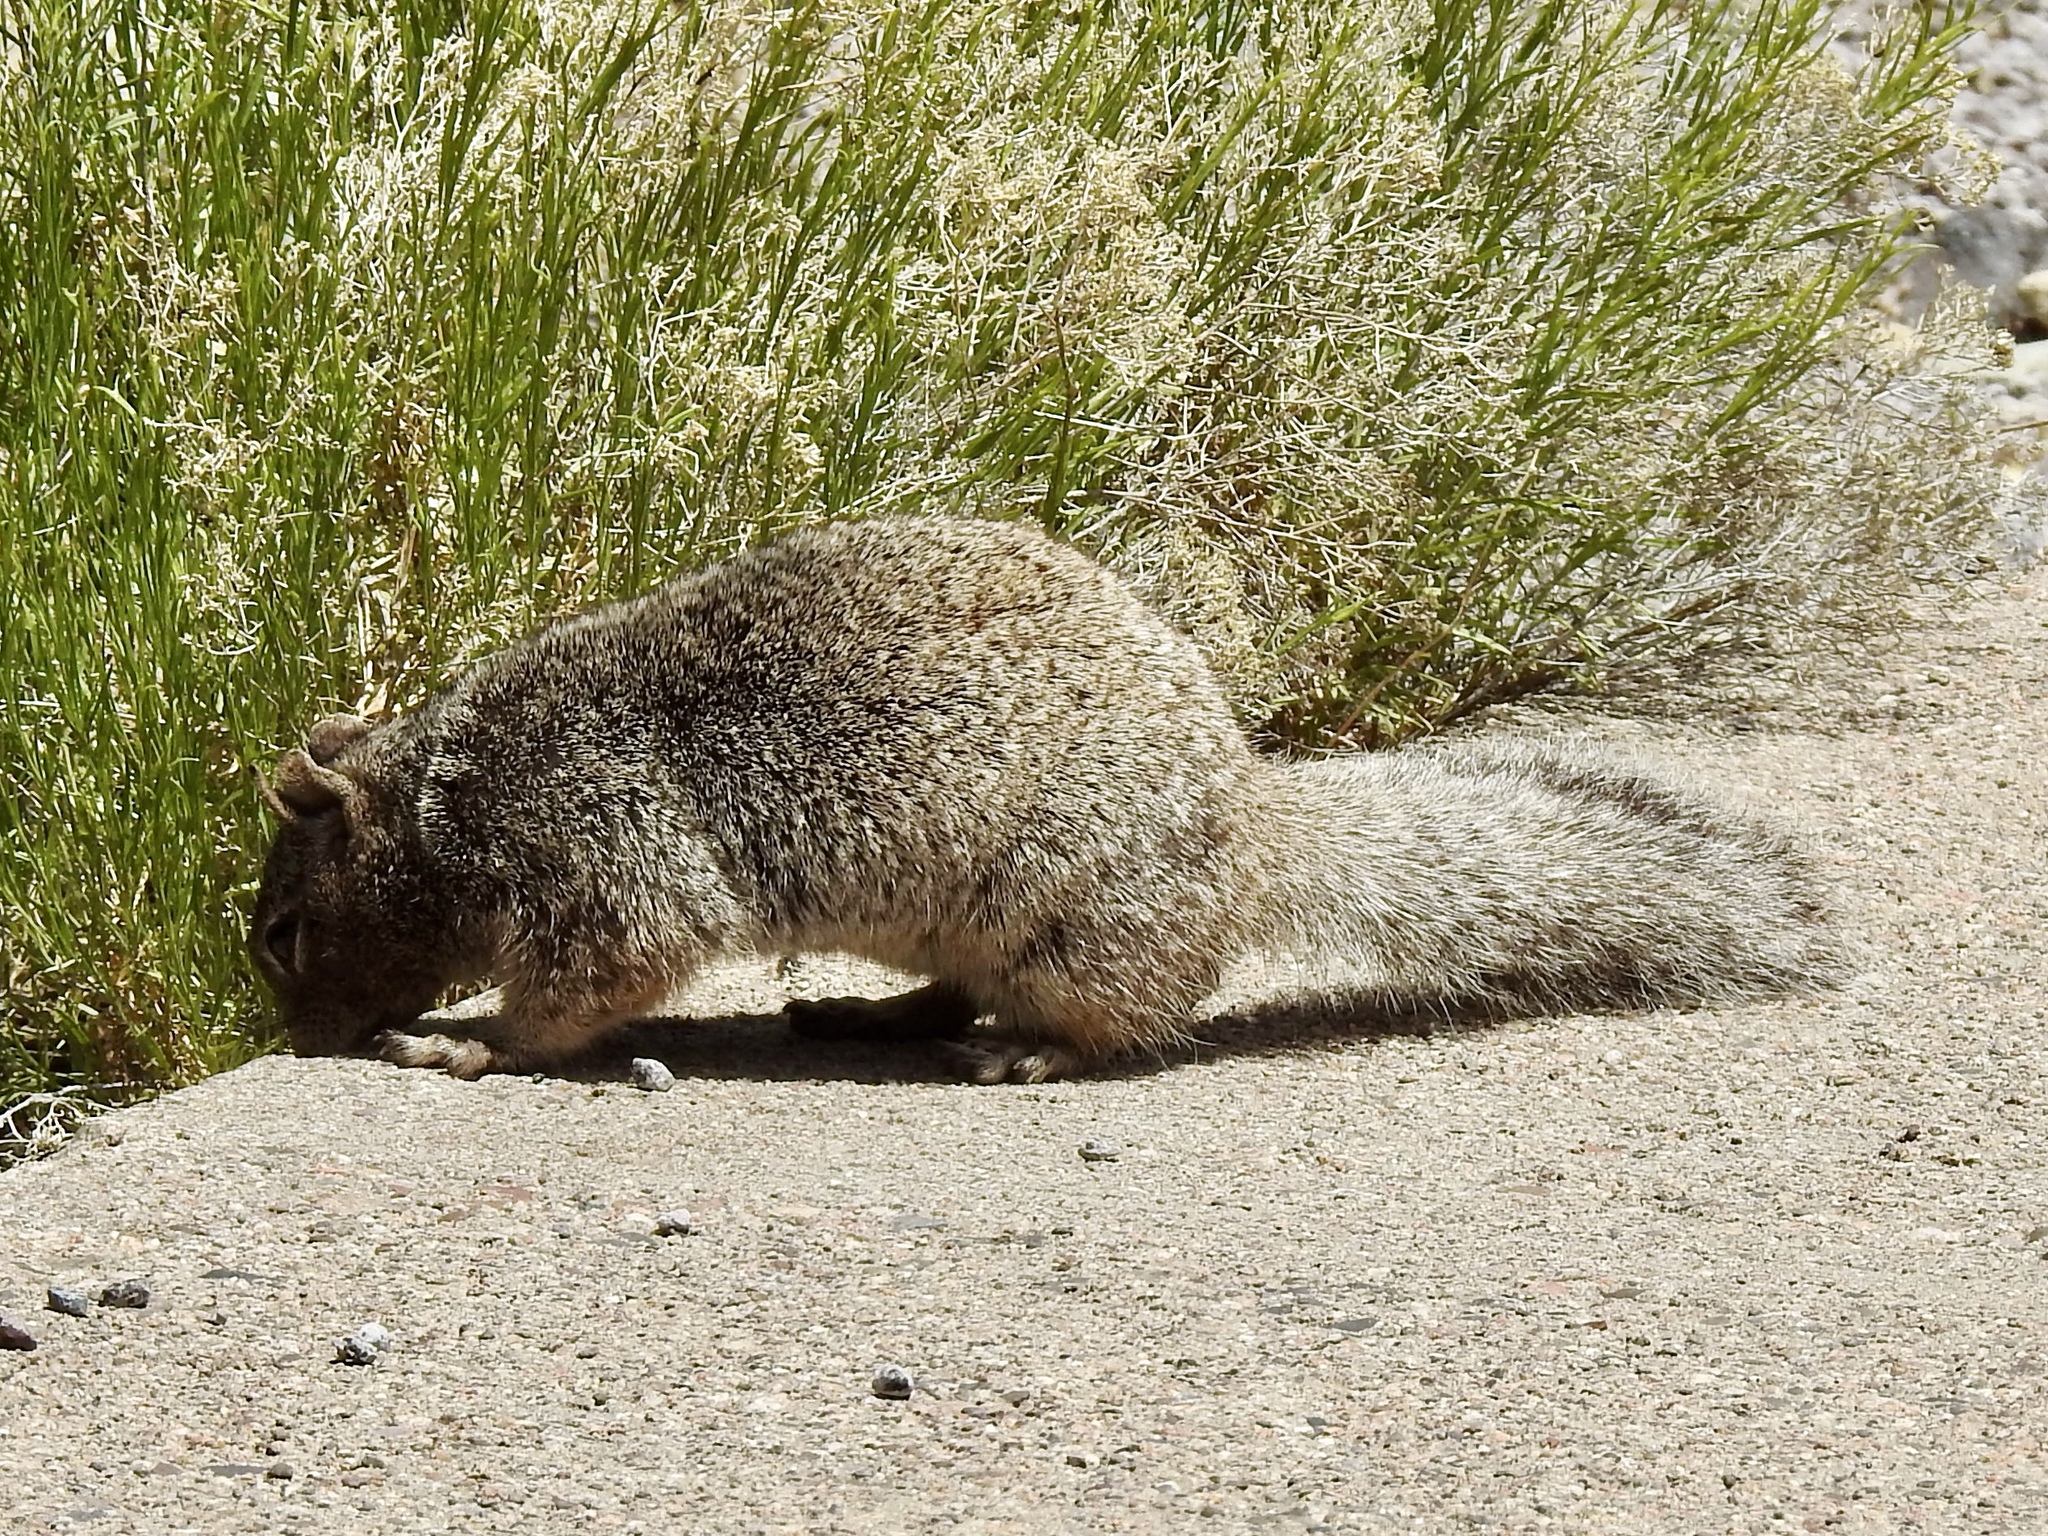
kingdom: Animalia
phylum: Chordata
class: Mammalia
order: Rodentia
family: Sciuridae
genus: Otospermophilus
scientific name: Otospermophilus variegatus
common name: Rock squirrel
